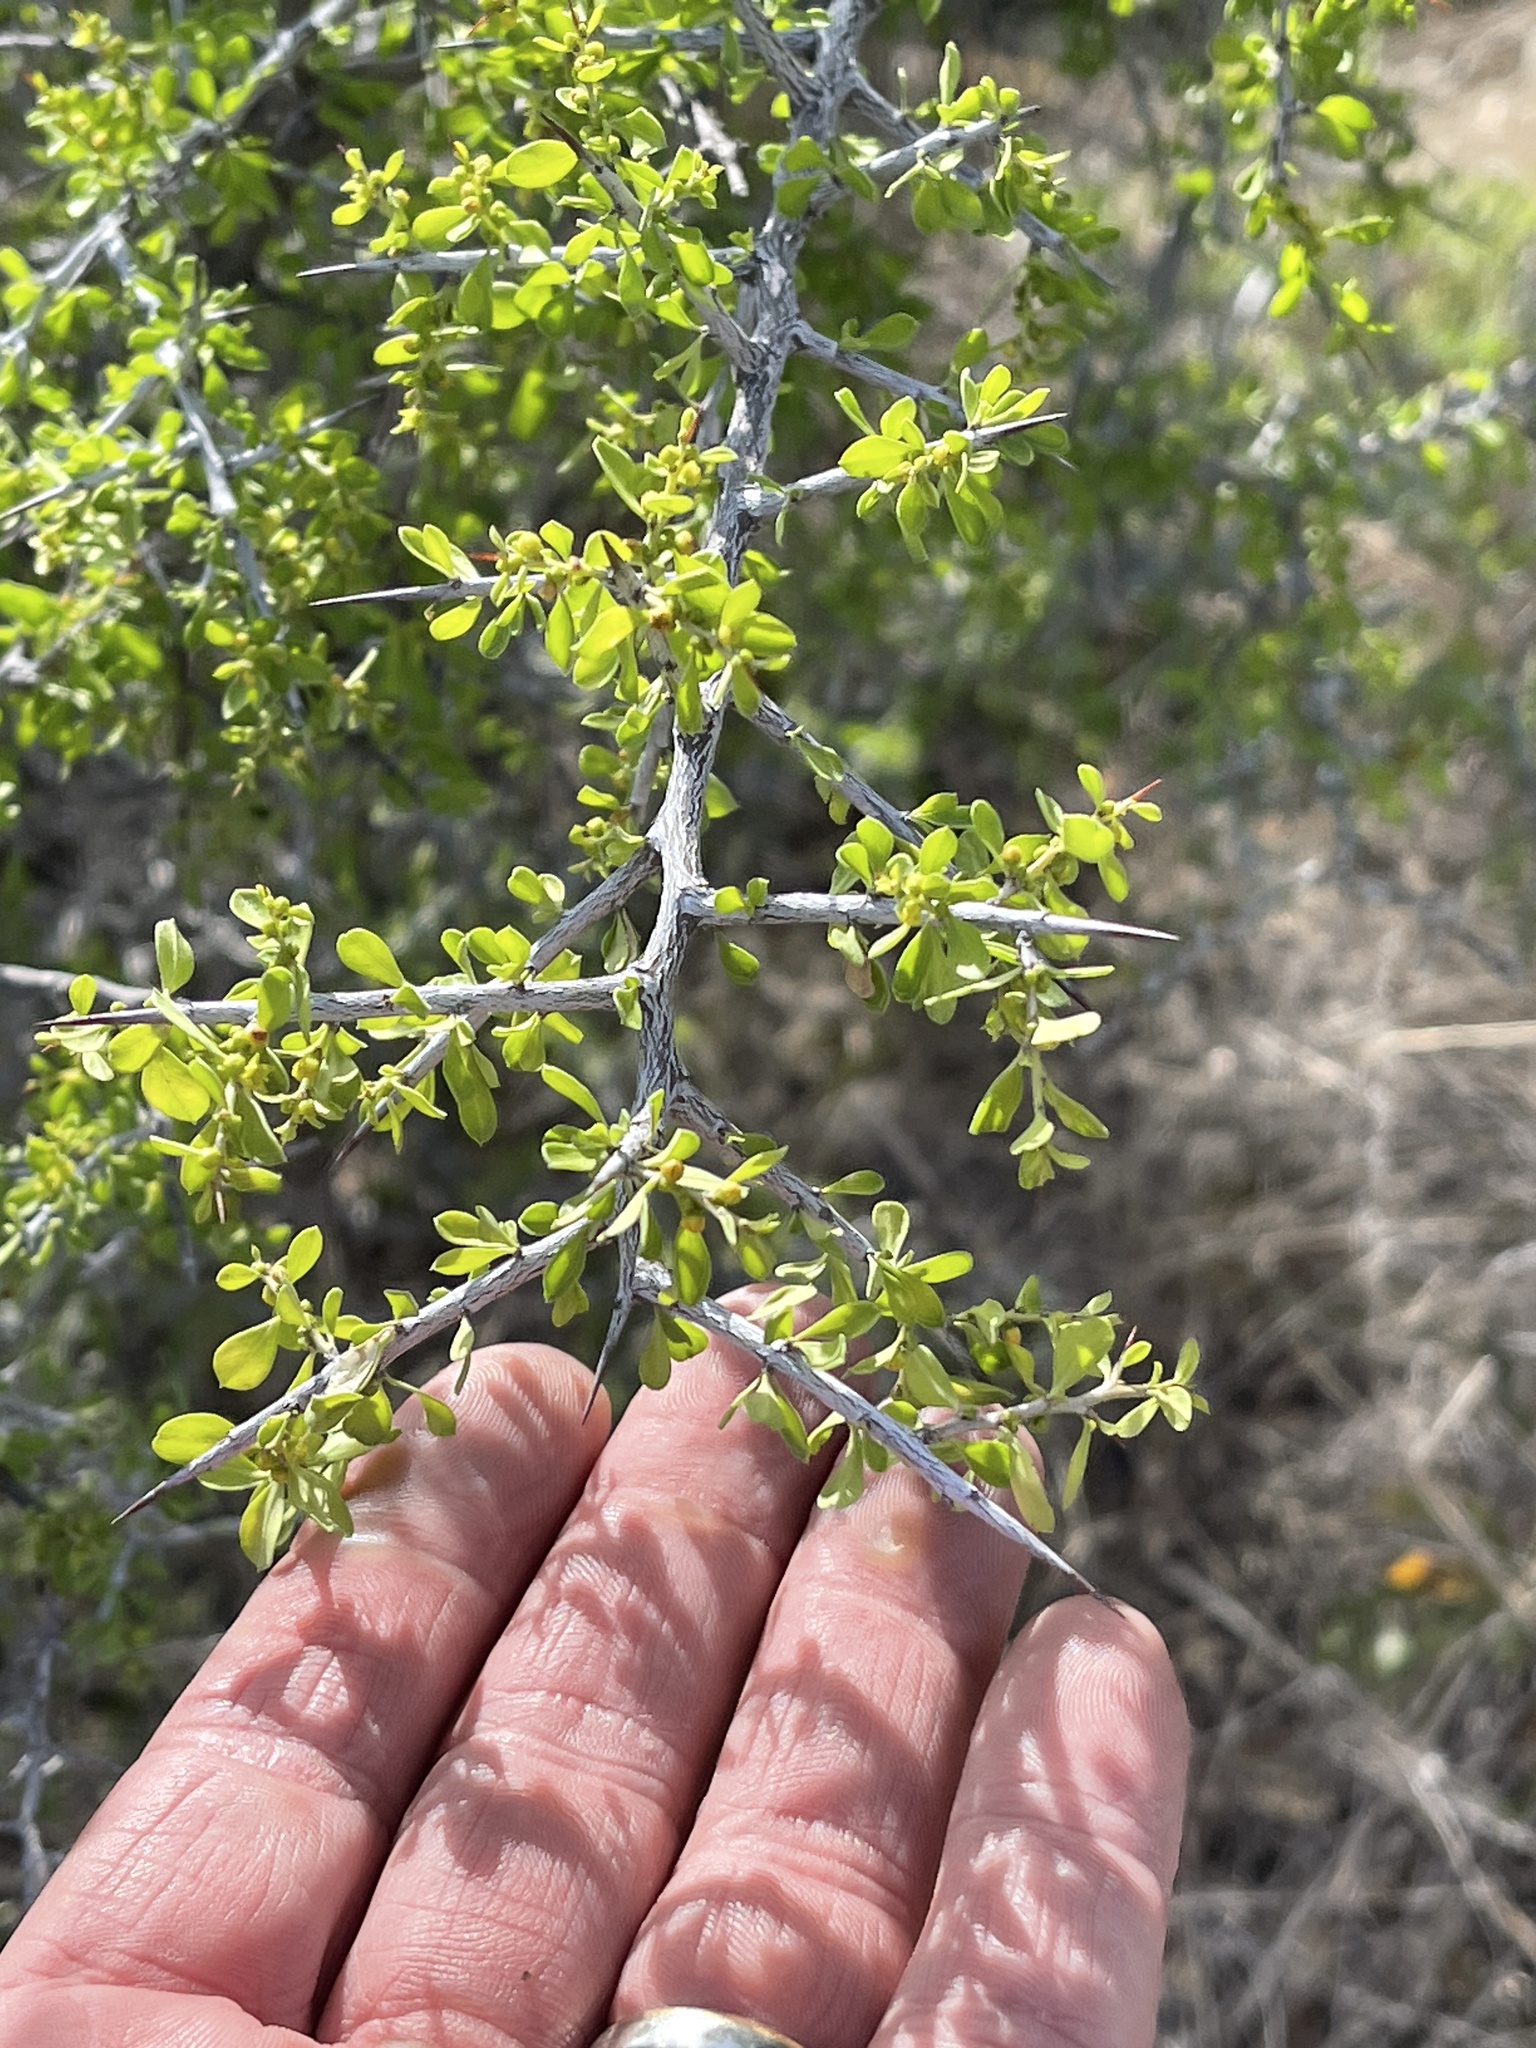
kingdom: Plantae
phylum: Tracheophyta
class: Magnoliopsida
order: Rosales
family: Rhamnaceae
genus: Condalia
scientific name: Condalia viridis
